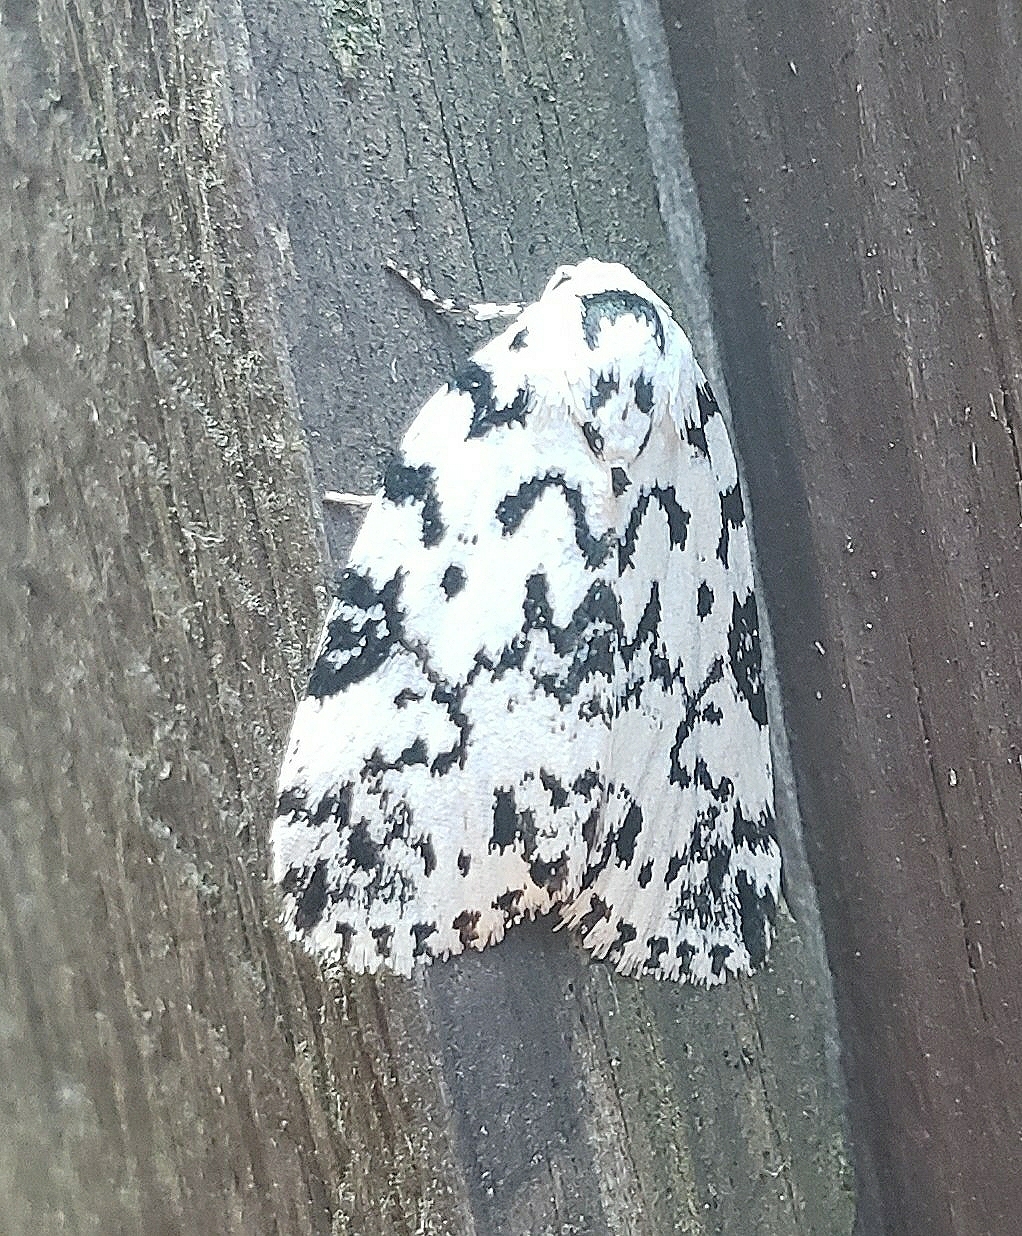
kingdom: Animalia
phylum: Arthropoda
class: Insecta
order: Lepidoptera
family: Noctuidae
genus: Polygrammate
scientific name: Polygrammate hebraeicum
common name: Hebrew moth
